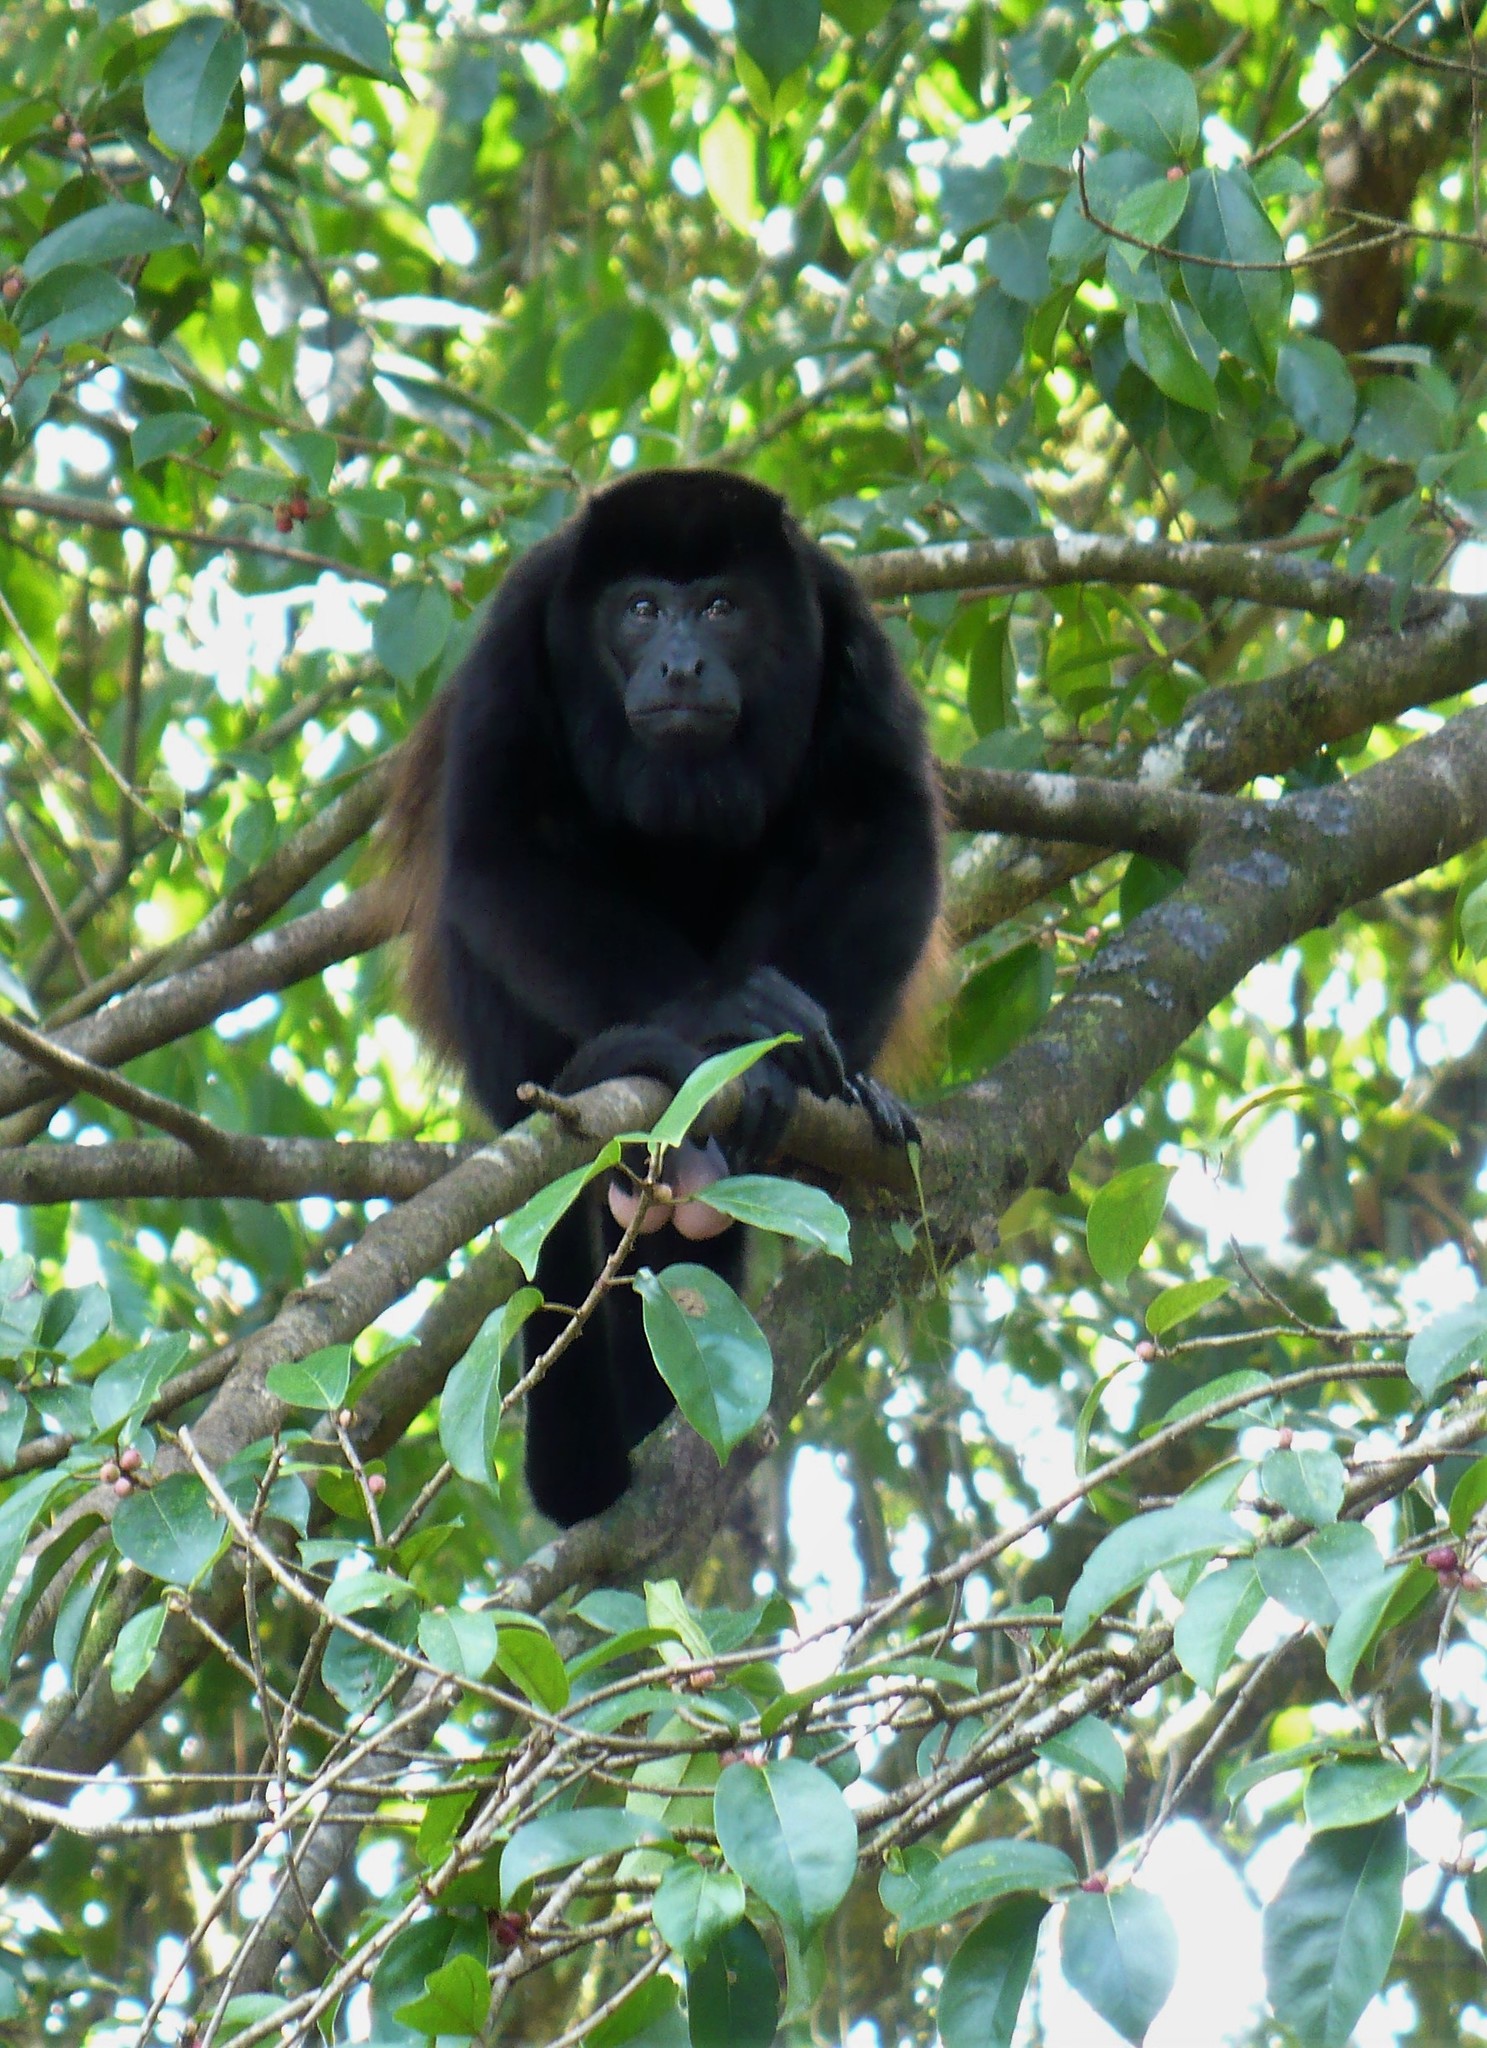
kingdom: Animalia
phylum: Chordata
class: Mammalia
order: Primates
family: Atelidae
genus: Alouatta
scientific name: Alouatta palliata
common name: Mantled howler
